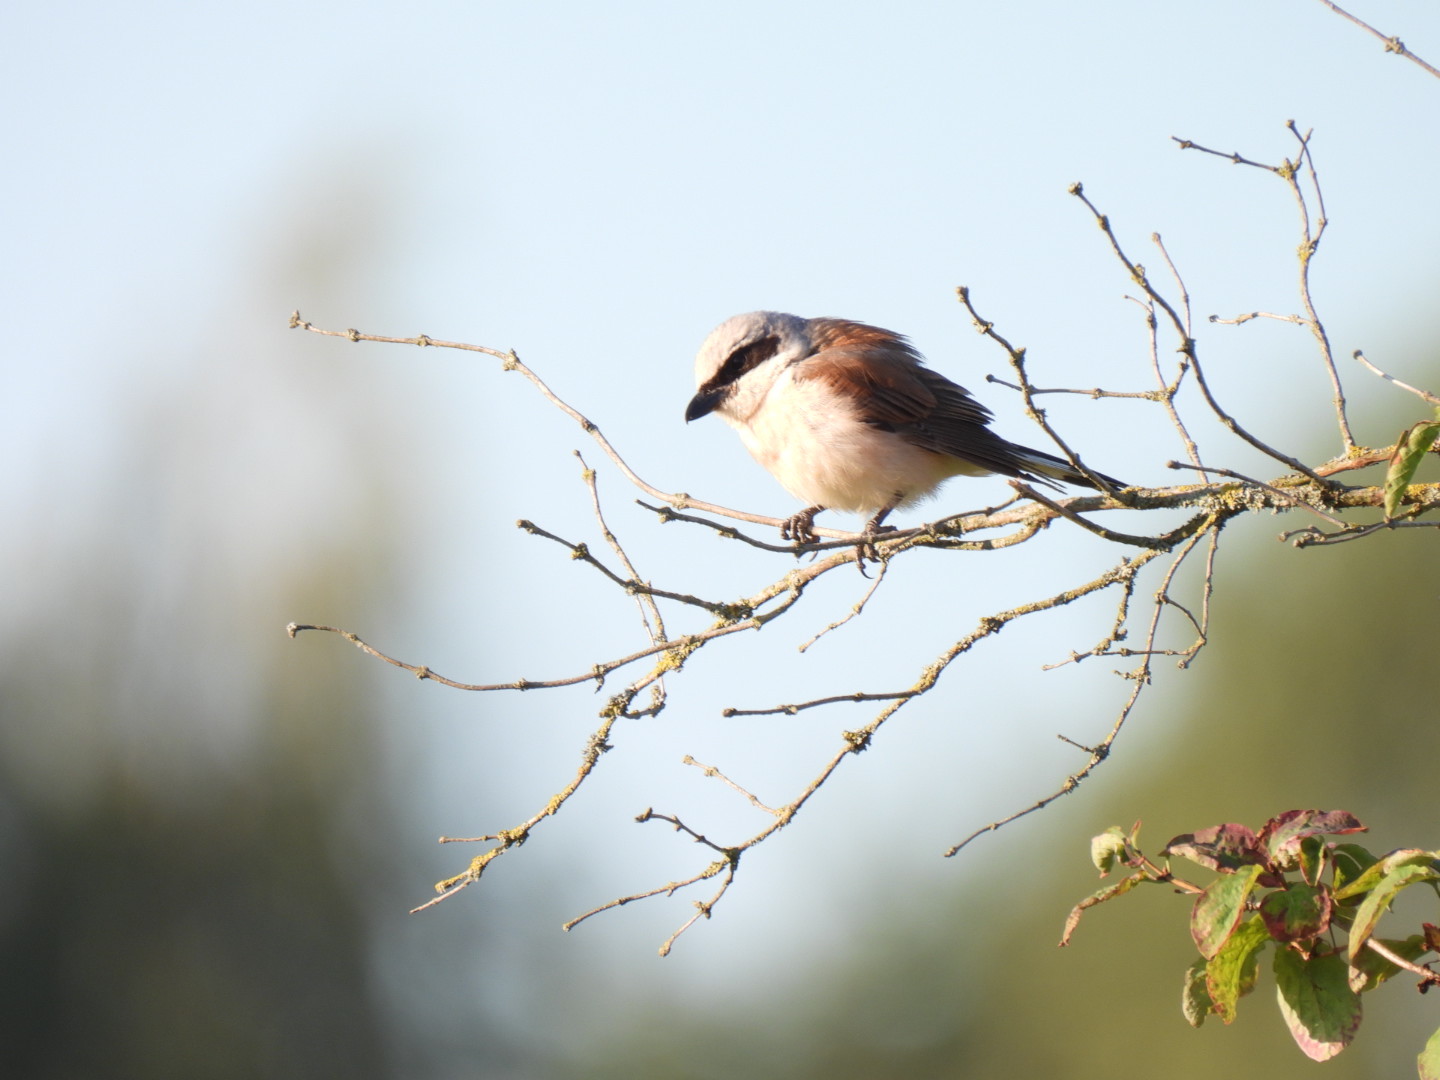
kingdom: Animalia
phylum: Chordata
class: Aves
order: Passeriformes
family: Laniidae
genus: Lanius
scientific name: Lanius collurio
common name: Red-backed shrike
